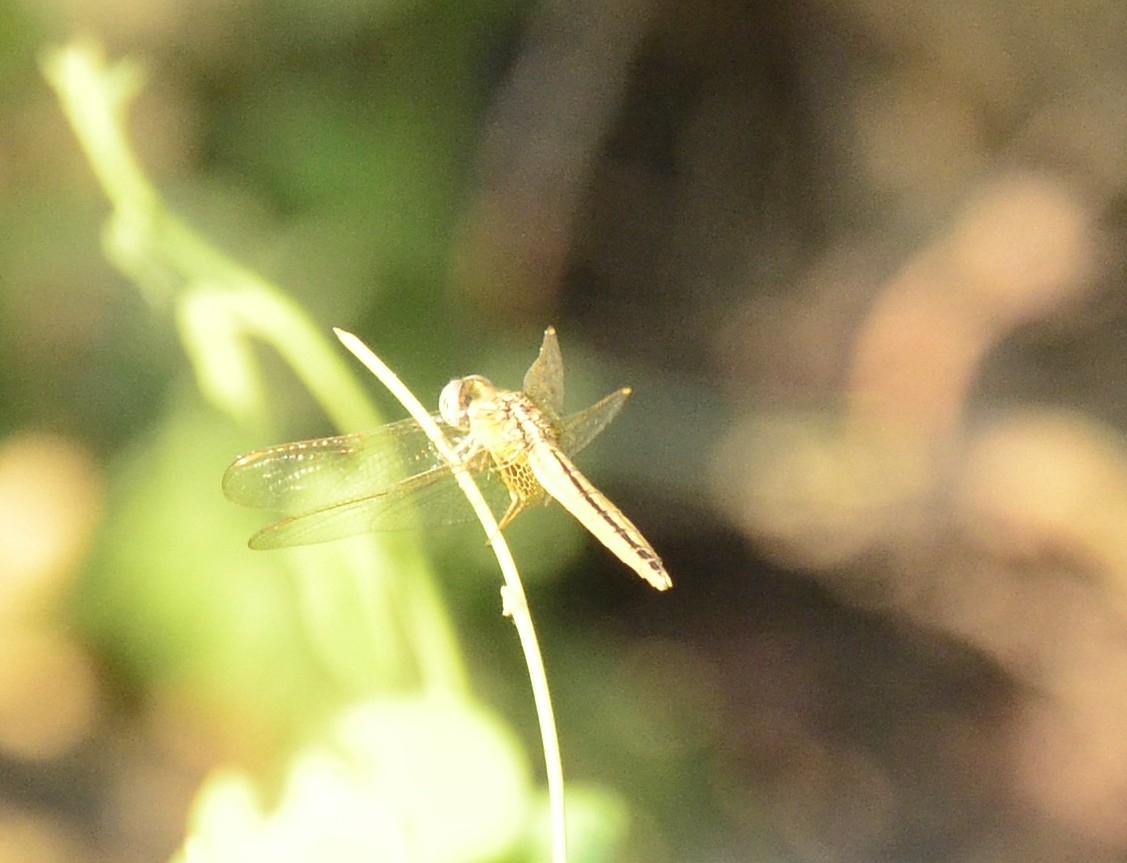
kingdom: Animalia
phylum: Arthropoda
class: Insecta
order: Odonata
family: Libellulidae
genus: Crocothemis
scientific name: Crocothemis servilia
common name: Scarlet skimmer
